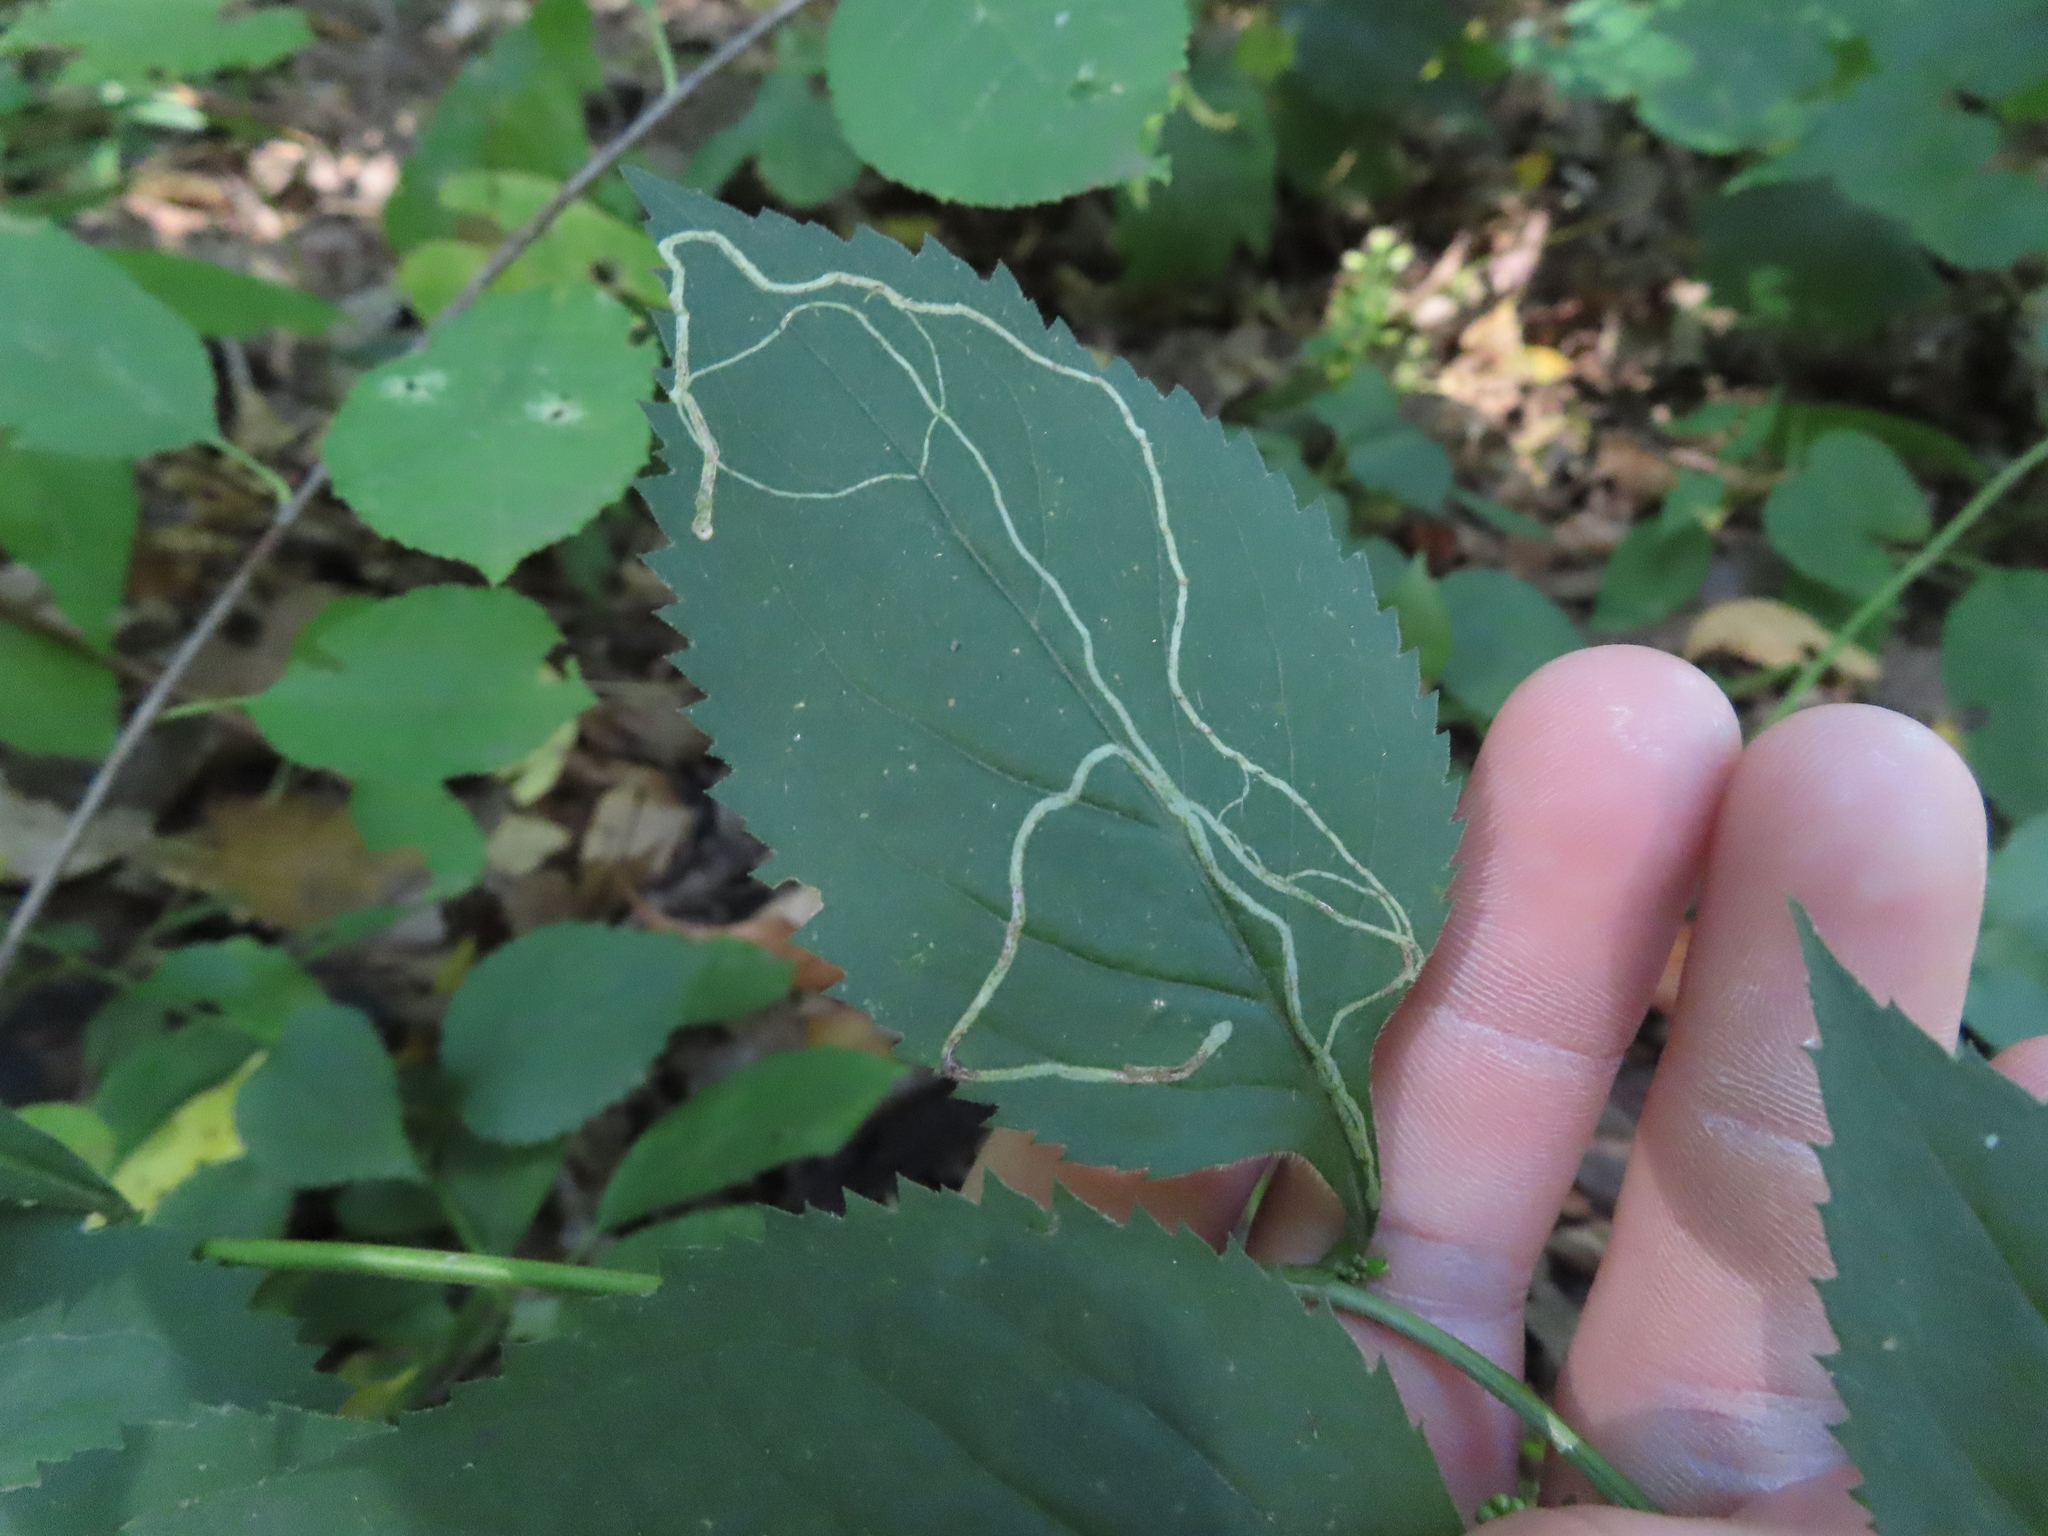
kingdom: Animalia
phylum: Arthropoda
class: Insecta
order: Diptera
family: Agromyzidae
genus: Ophiomyia
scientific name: Ophiomyia maura
